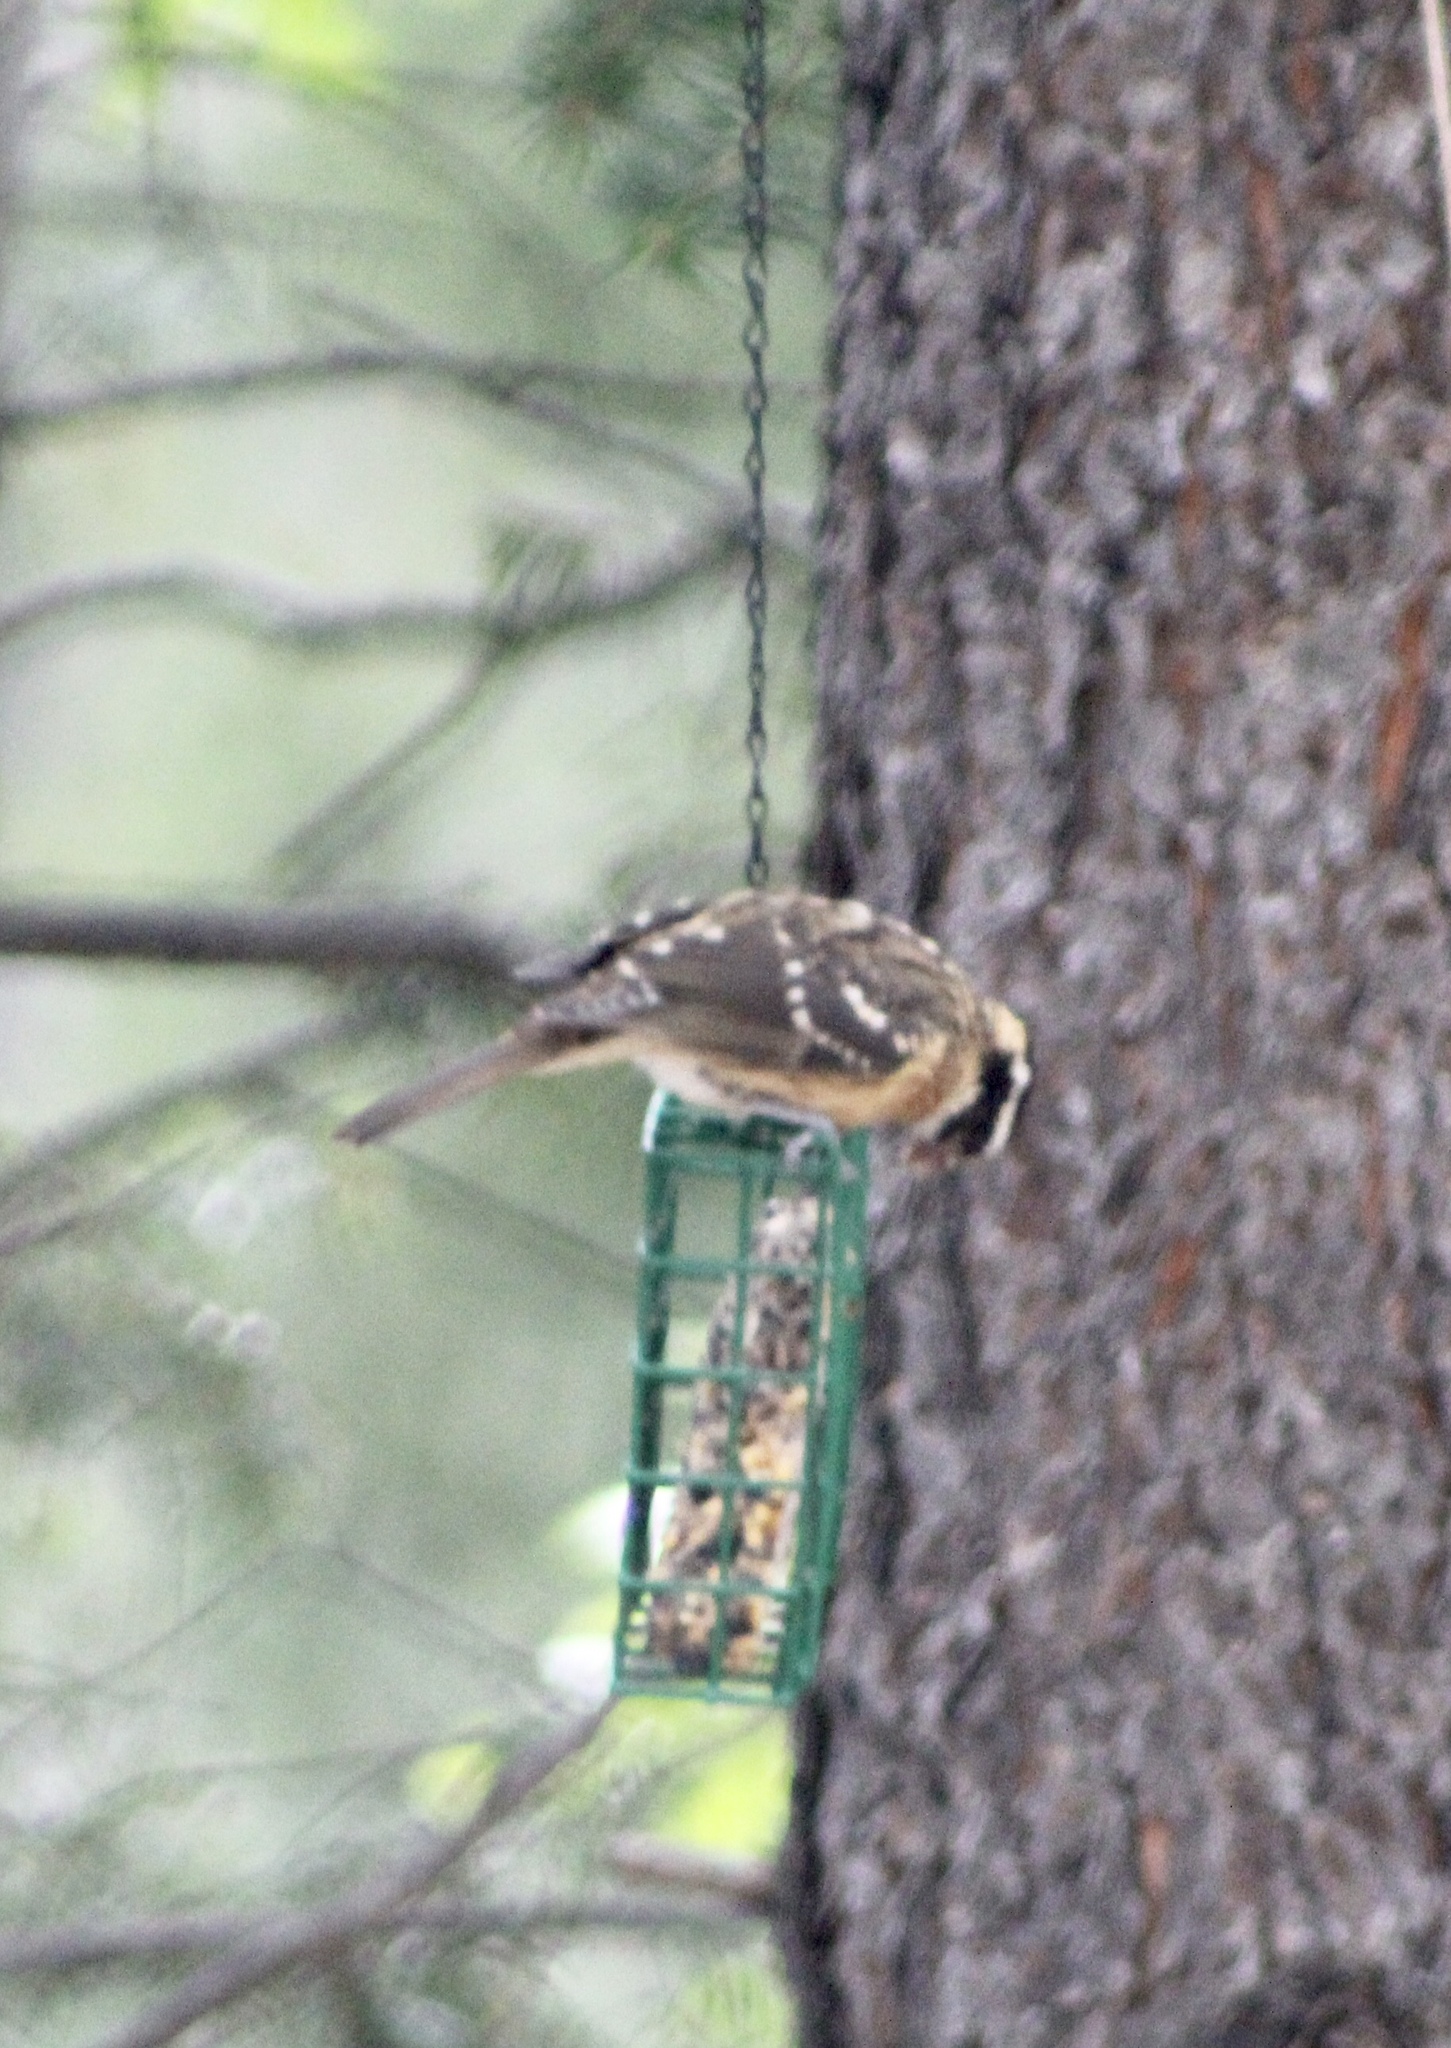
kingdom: Animalia
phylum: Chordata
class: Aves
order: Passeriformes
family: Cardinalidae
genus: Pheucticus
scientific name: Pheucticus melanocephalus
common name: Black-headed grosbeak
